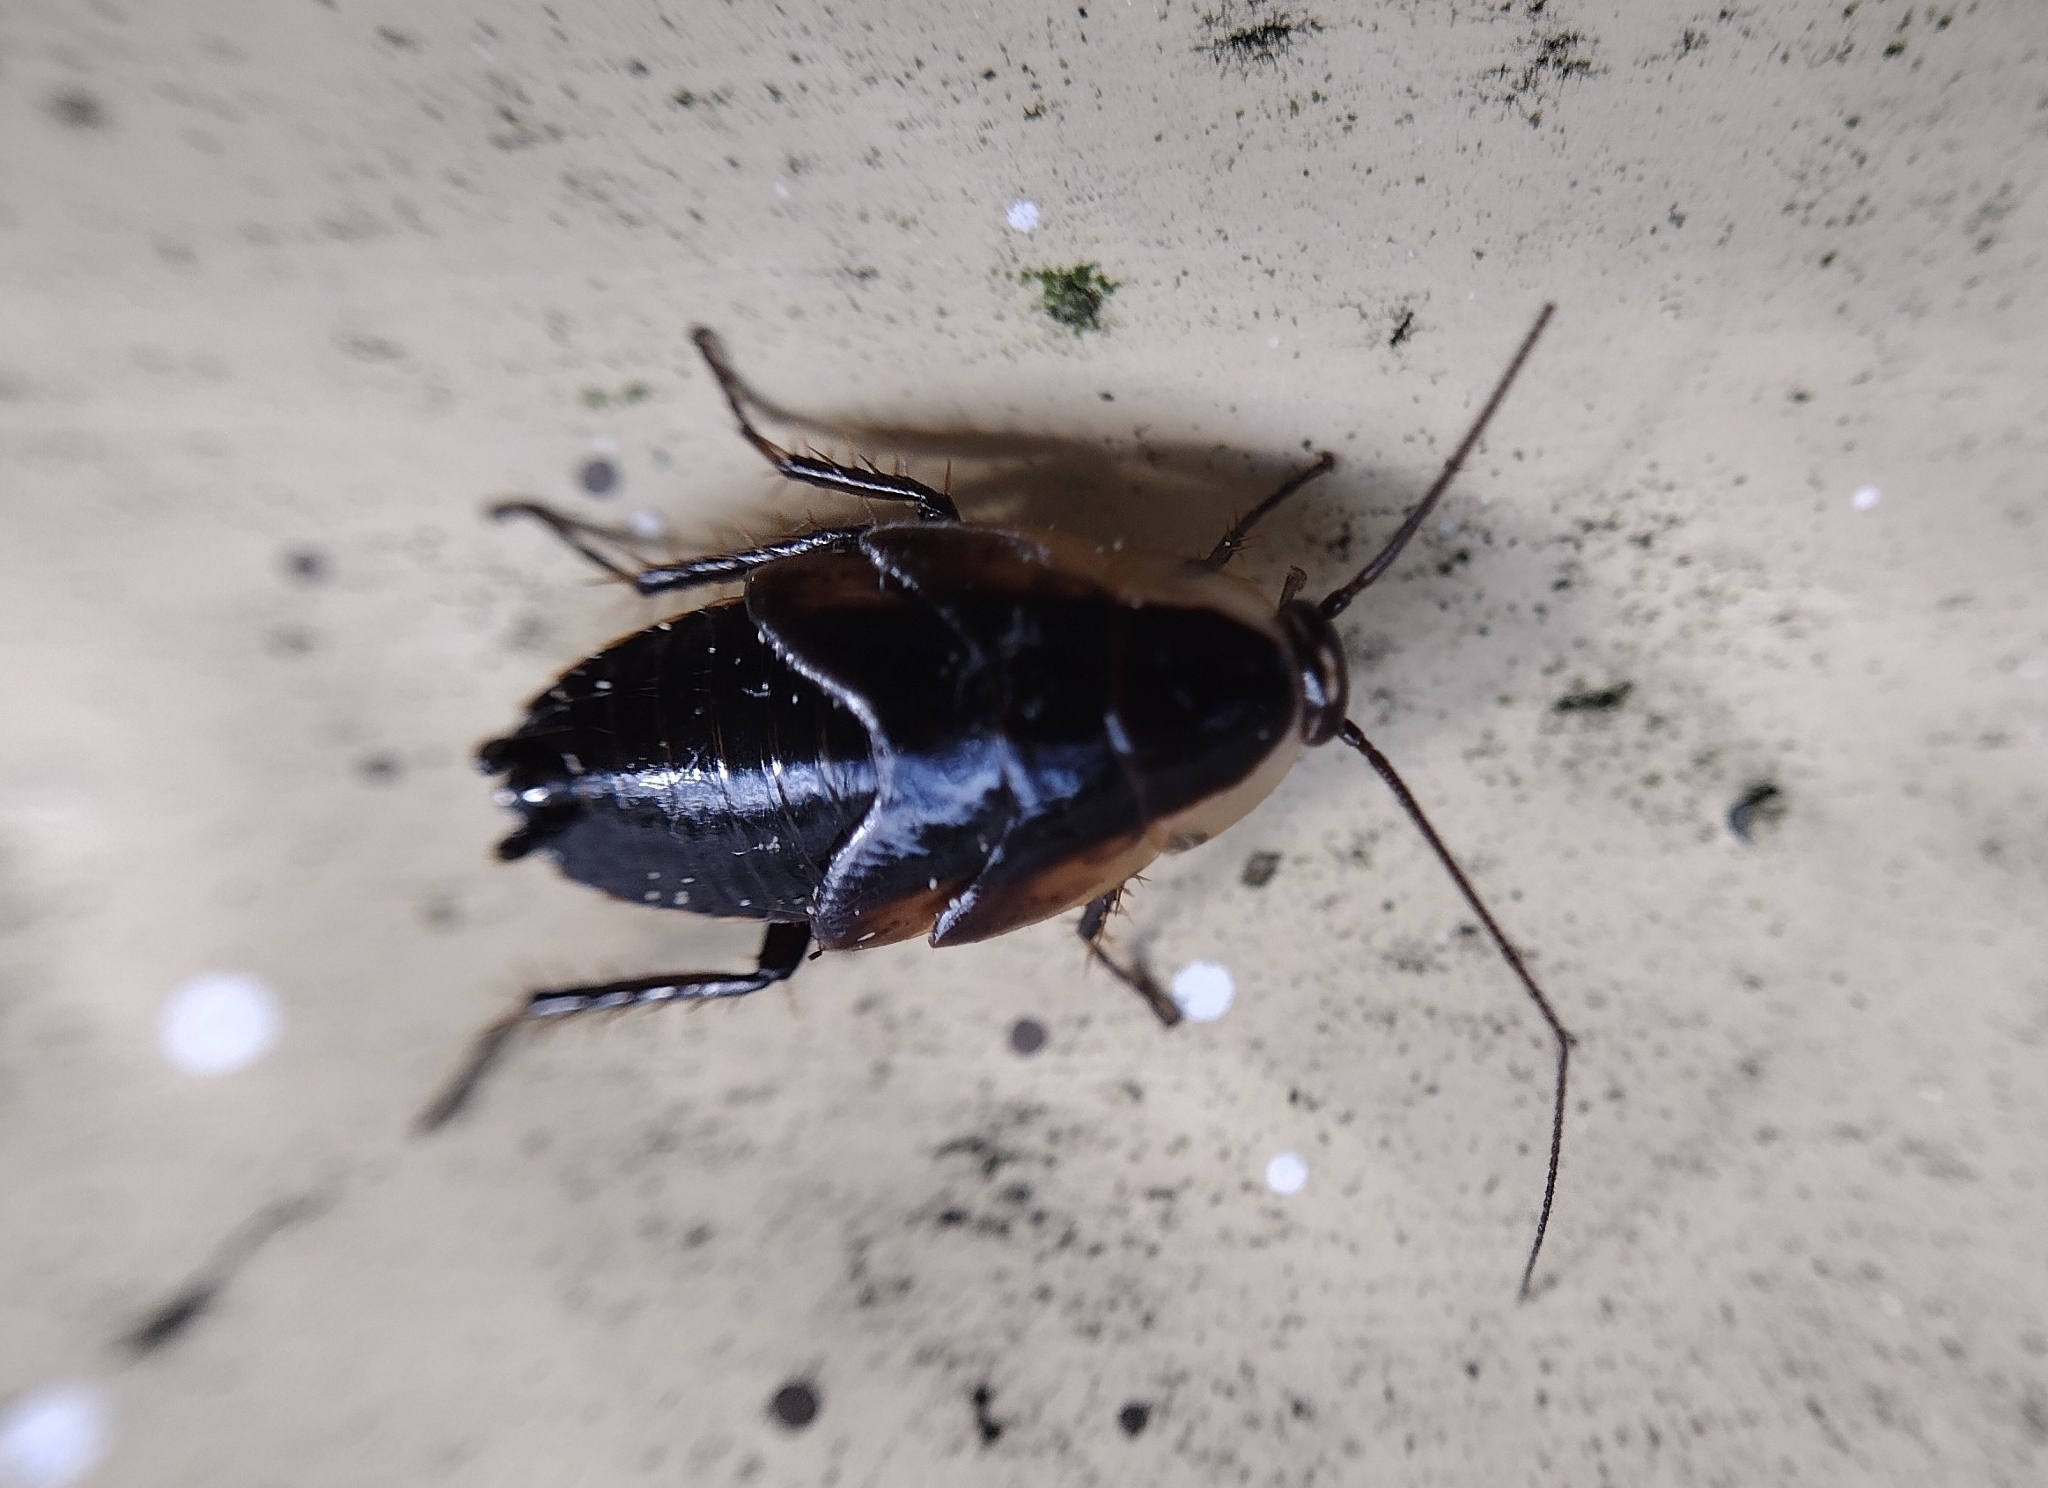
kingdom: Animalia
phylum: Arthropoda
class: Insecta
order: Blattodea
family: Ectobiidae
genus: Ectobius
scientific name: Ectobius sylvestris
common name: Forest cockroach
